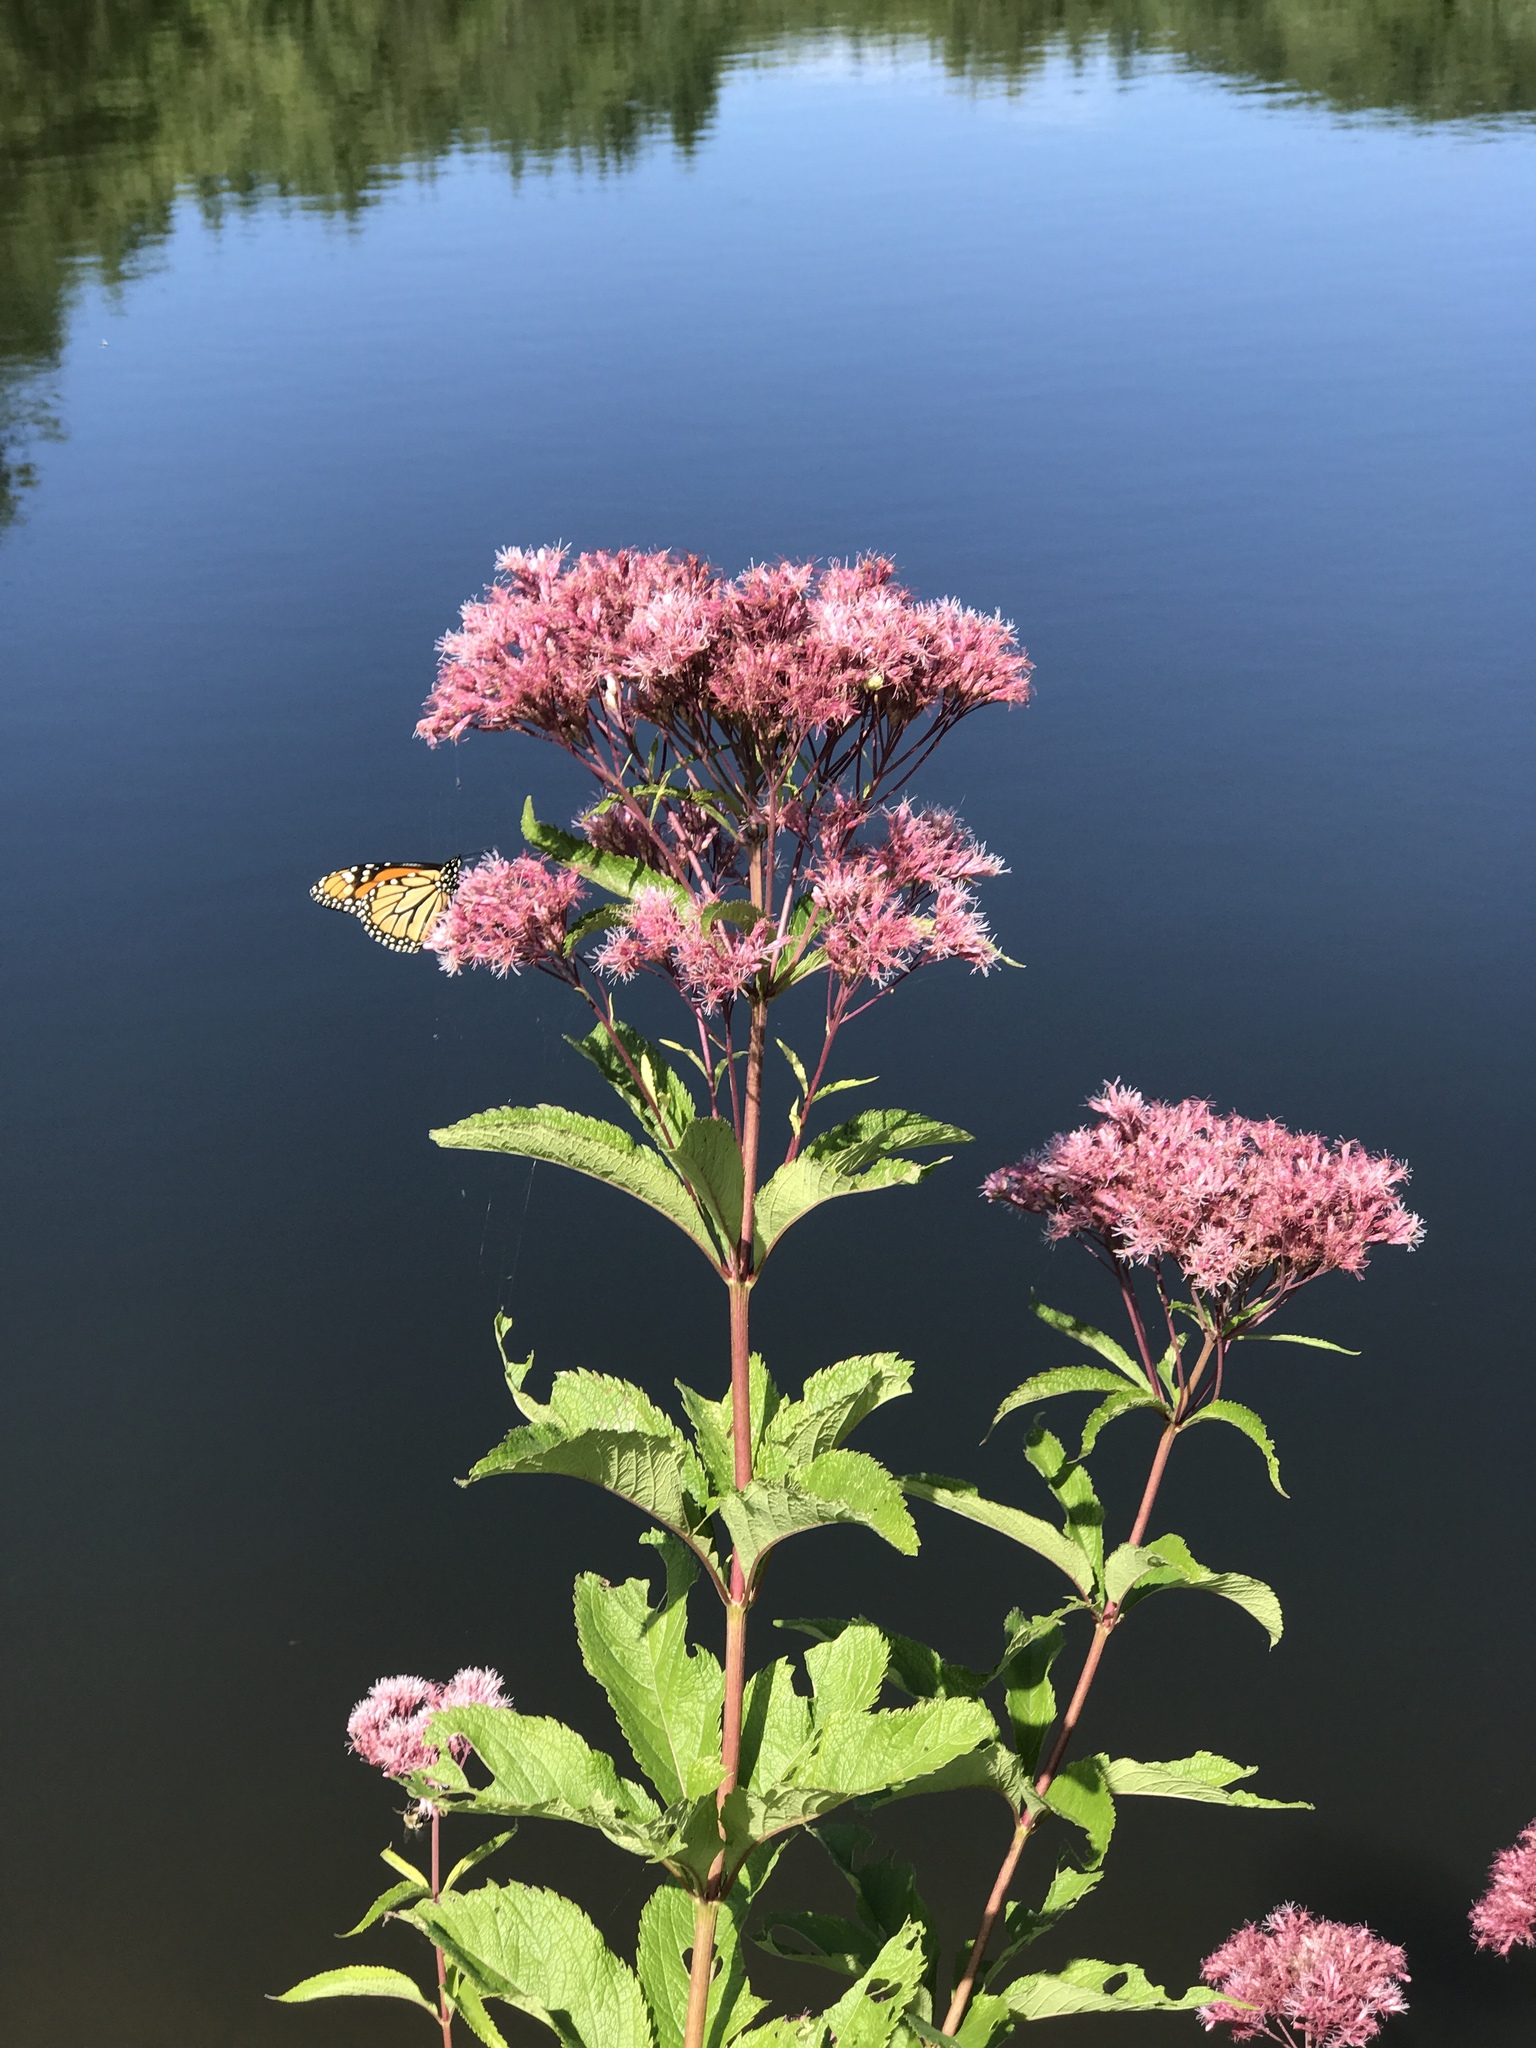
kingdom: Animalia
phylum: Arthropoda
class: Insecta
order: Lepidoptera
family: Nymphalidae
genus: Danaus
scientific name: Danaus plexippus
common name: Monarch
